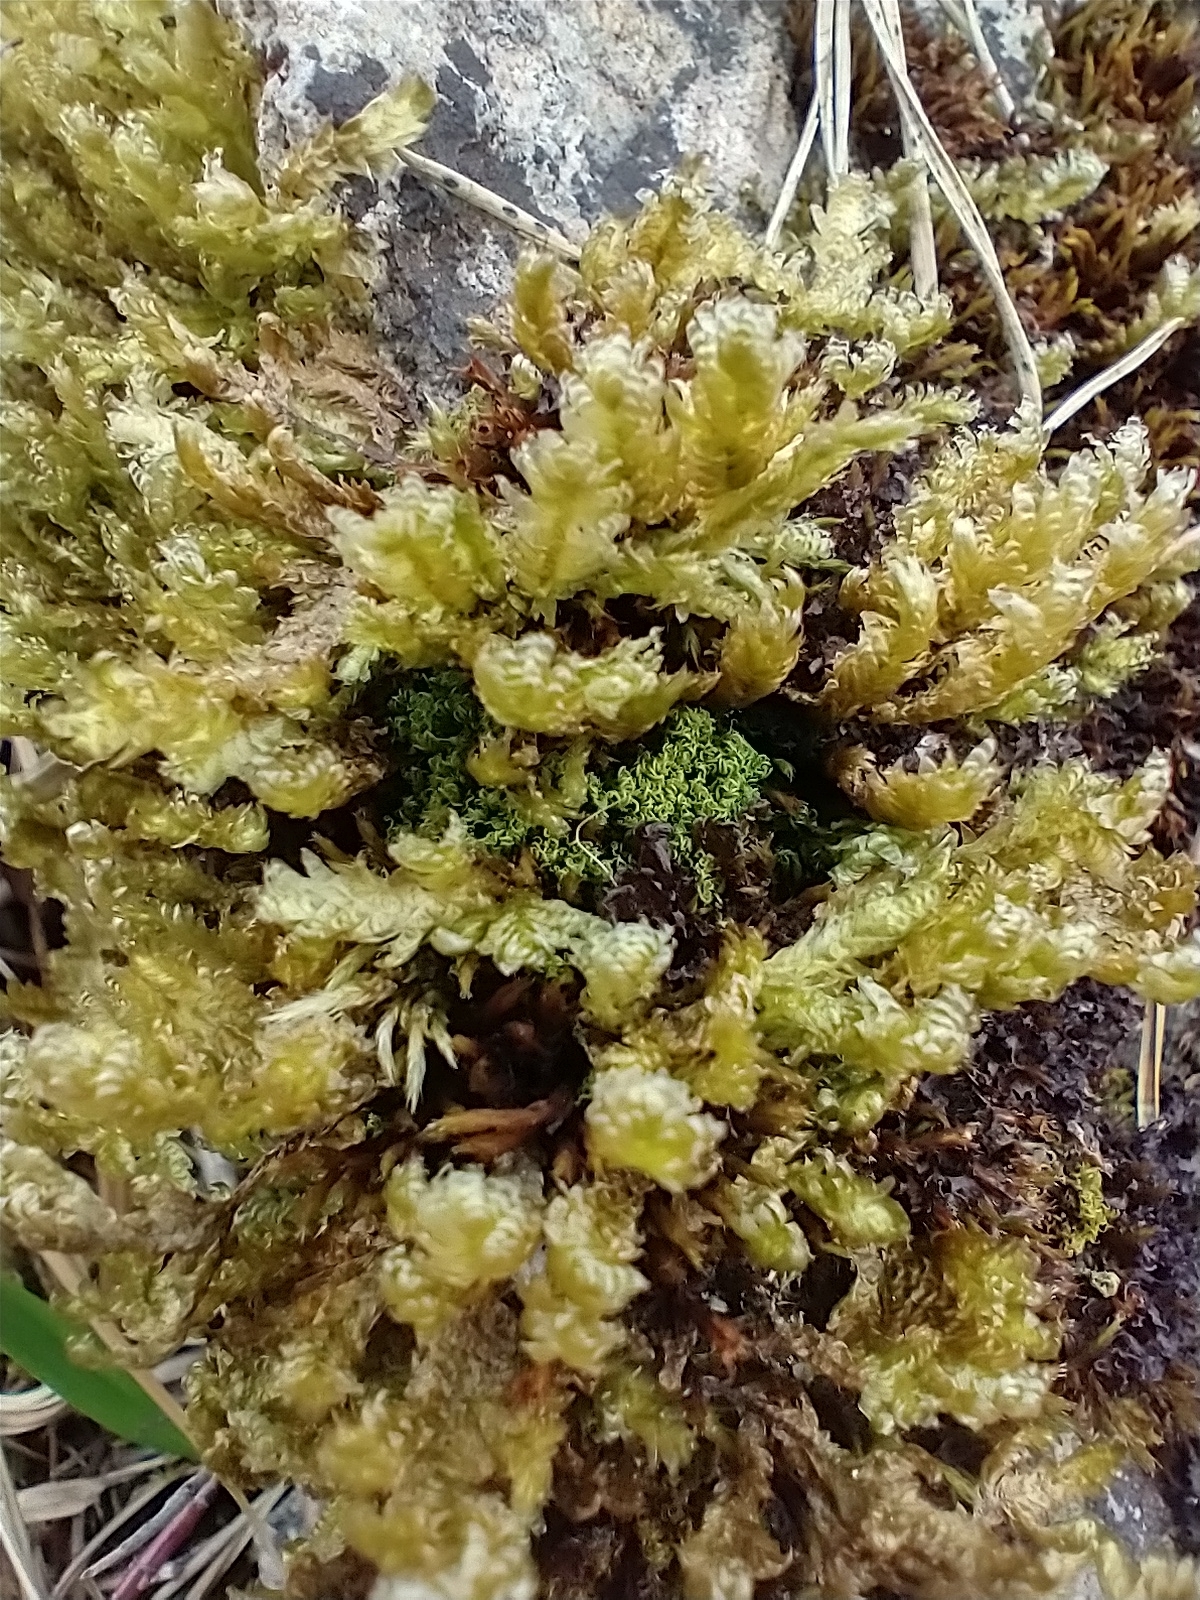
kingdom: Plantae
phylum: Bryophyta
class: Bryopsida
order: Hypnales
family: Neckeraceae
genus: Exsertotheca
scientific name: Exsertotheca crispa
